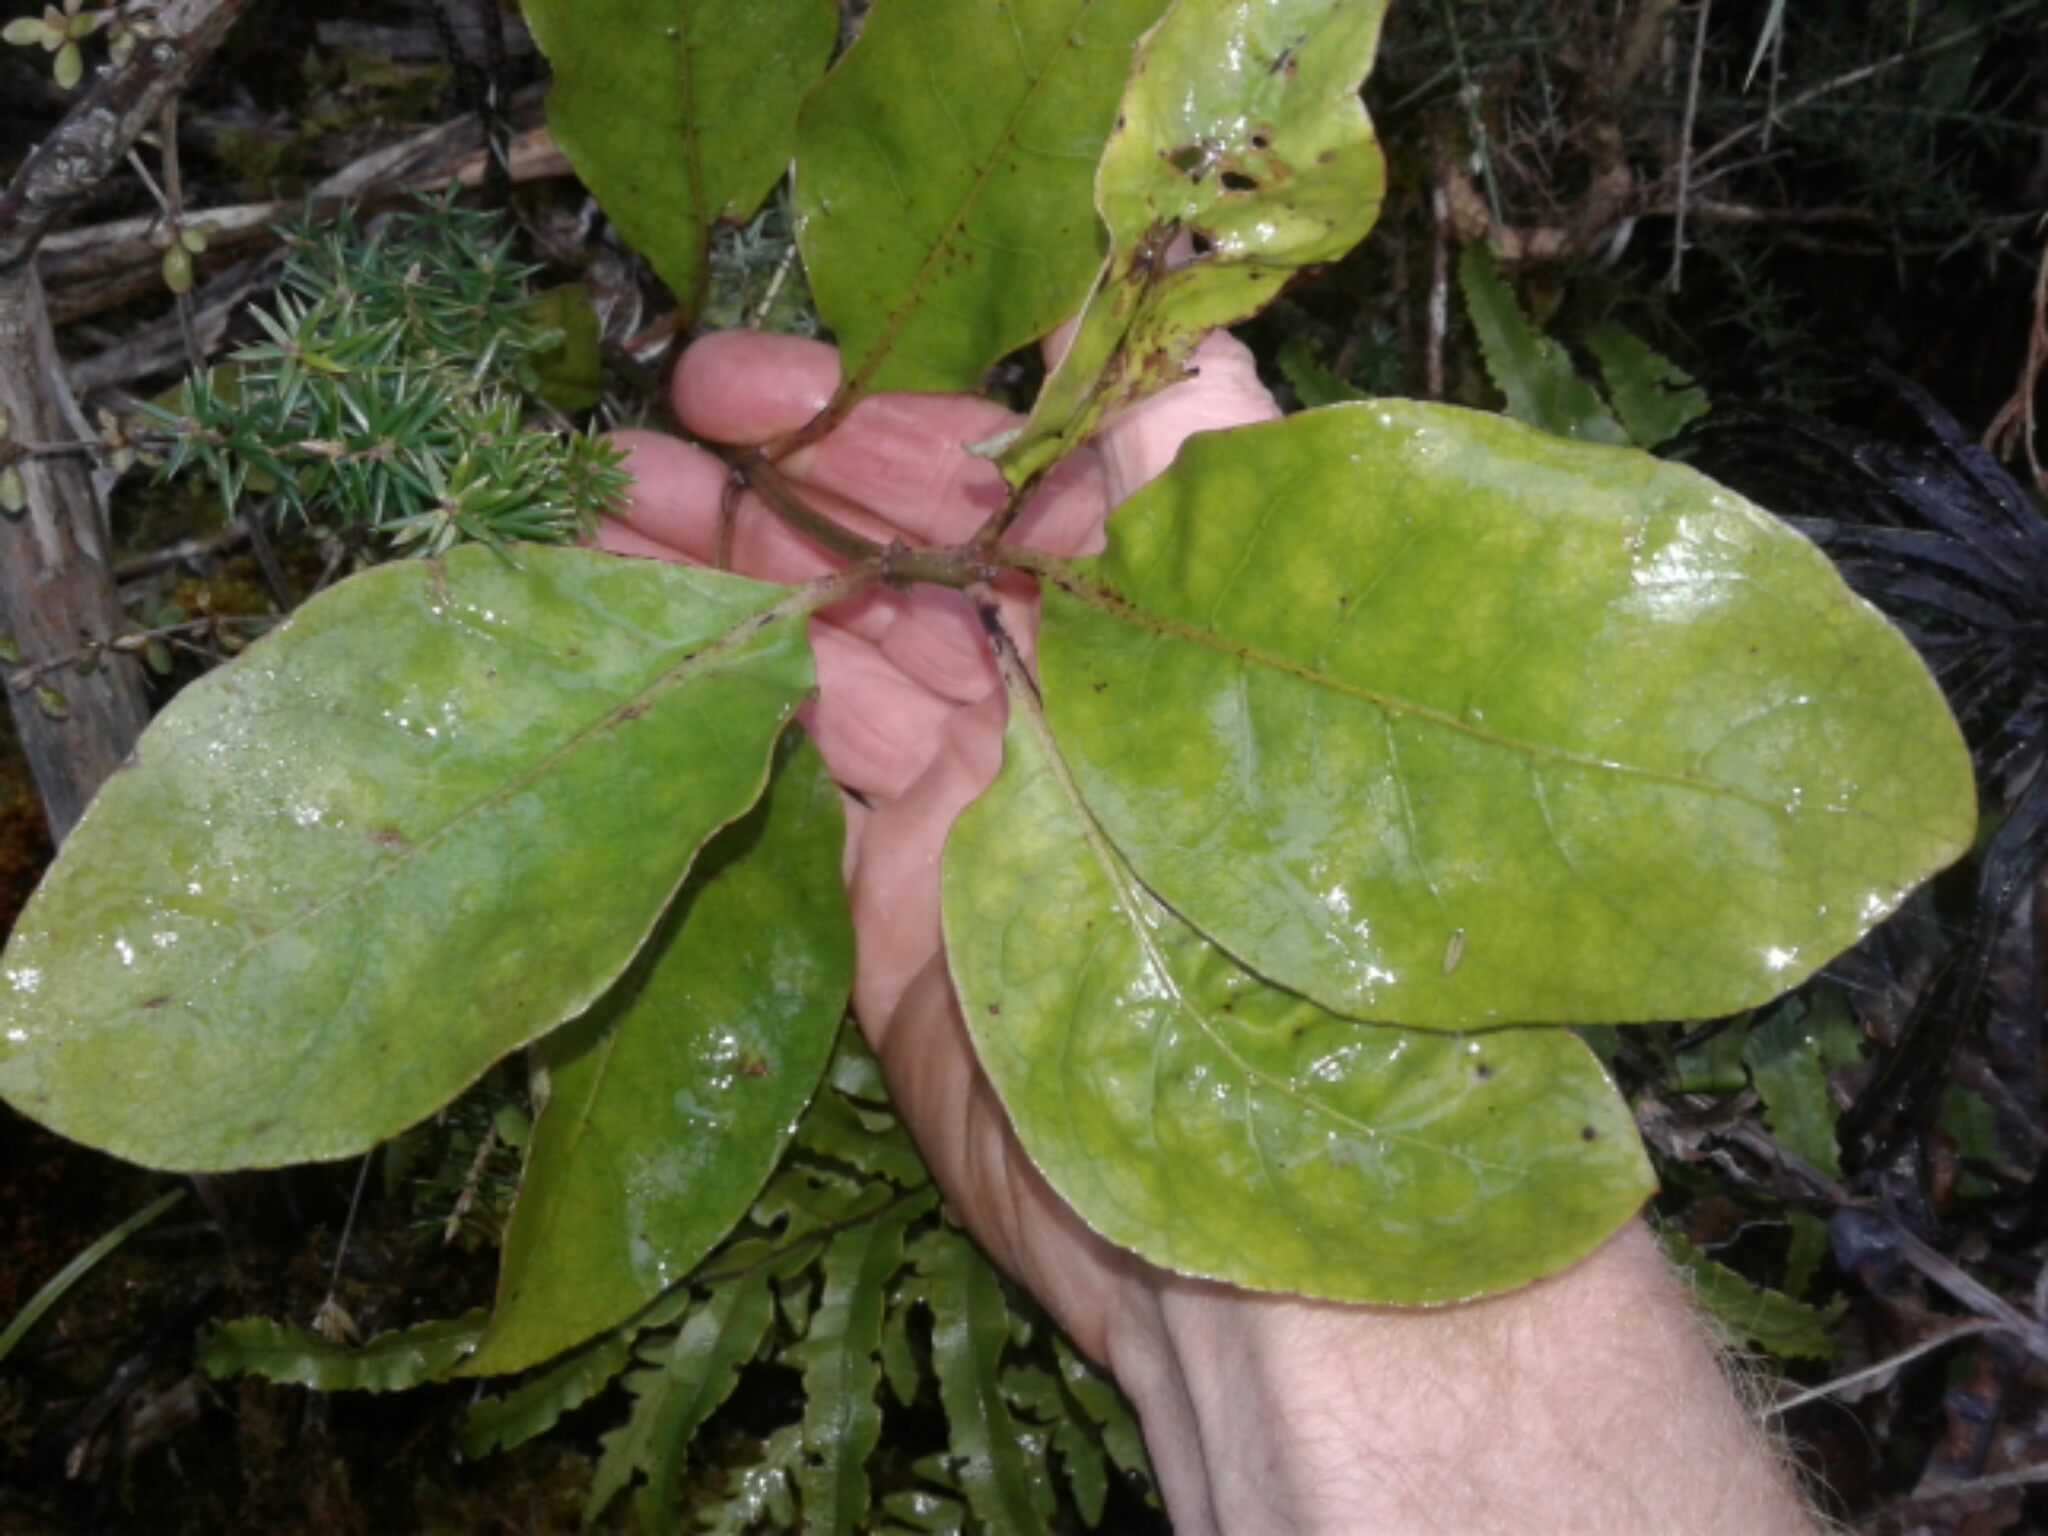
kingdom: Plantae
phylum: Tracheophyta
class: Magnoliopsida
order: Gentianales
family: Rubiaceae
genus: Coprosma
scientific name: Coprosma autumnalis
